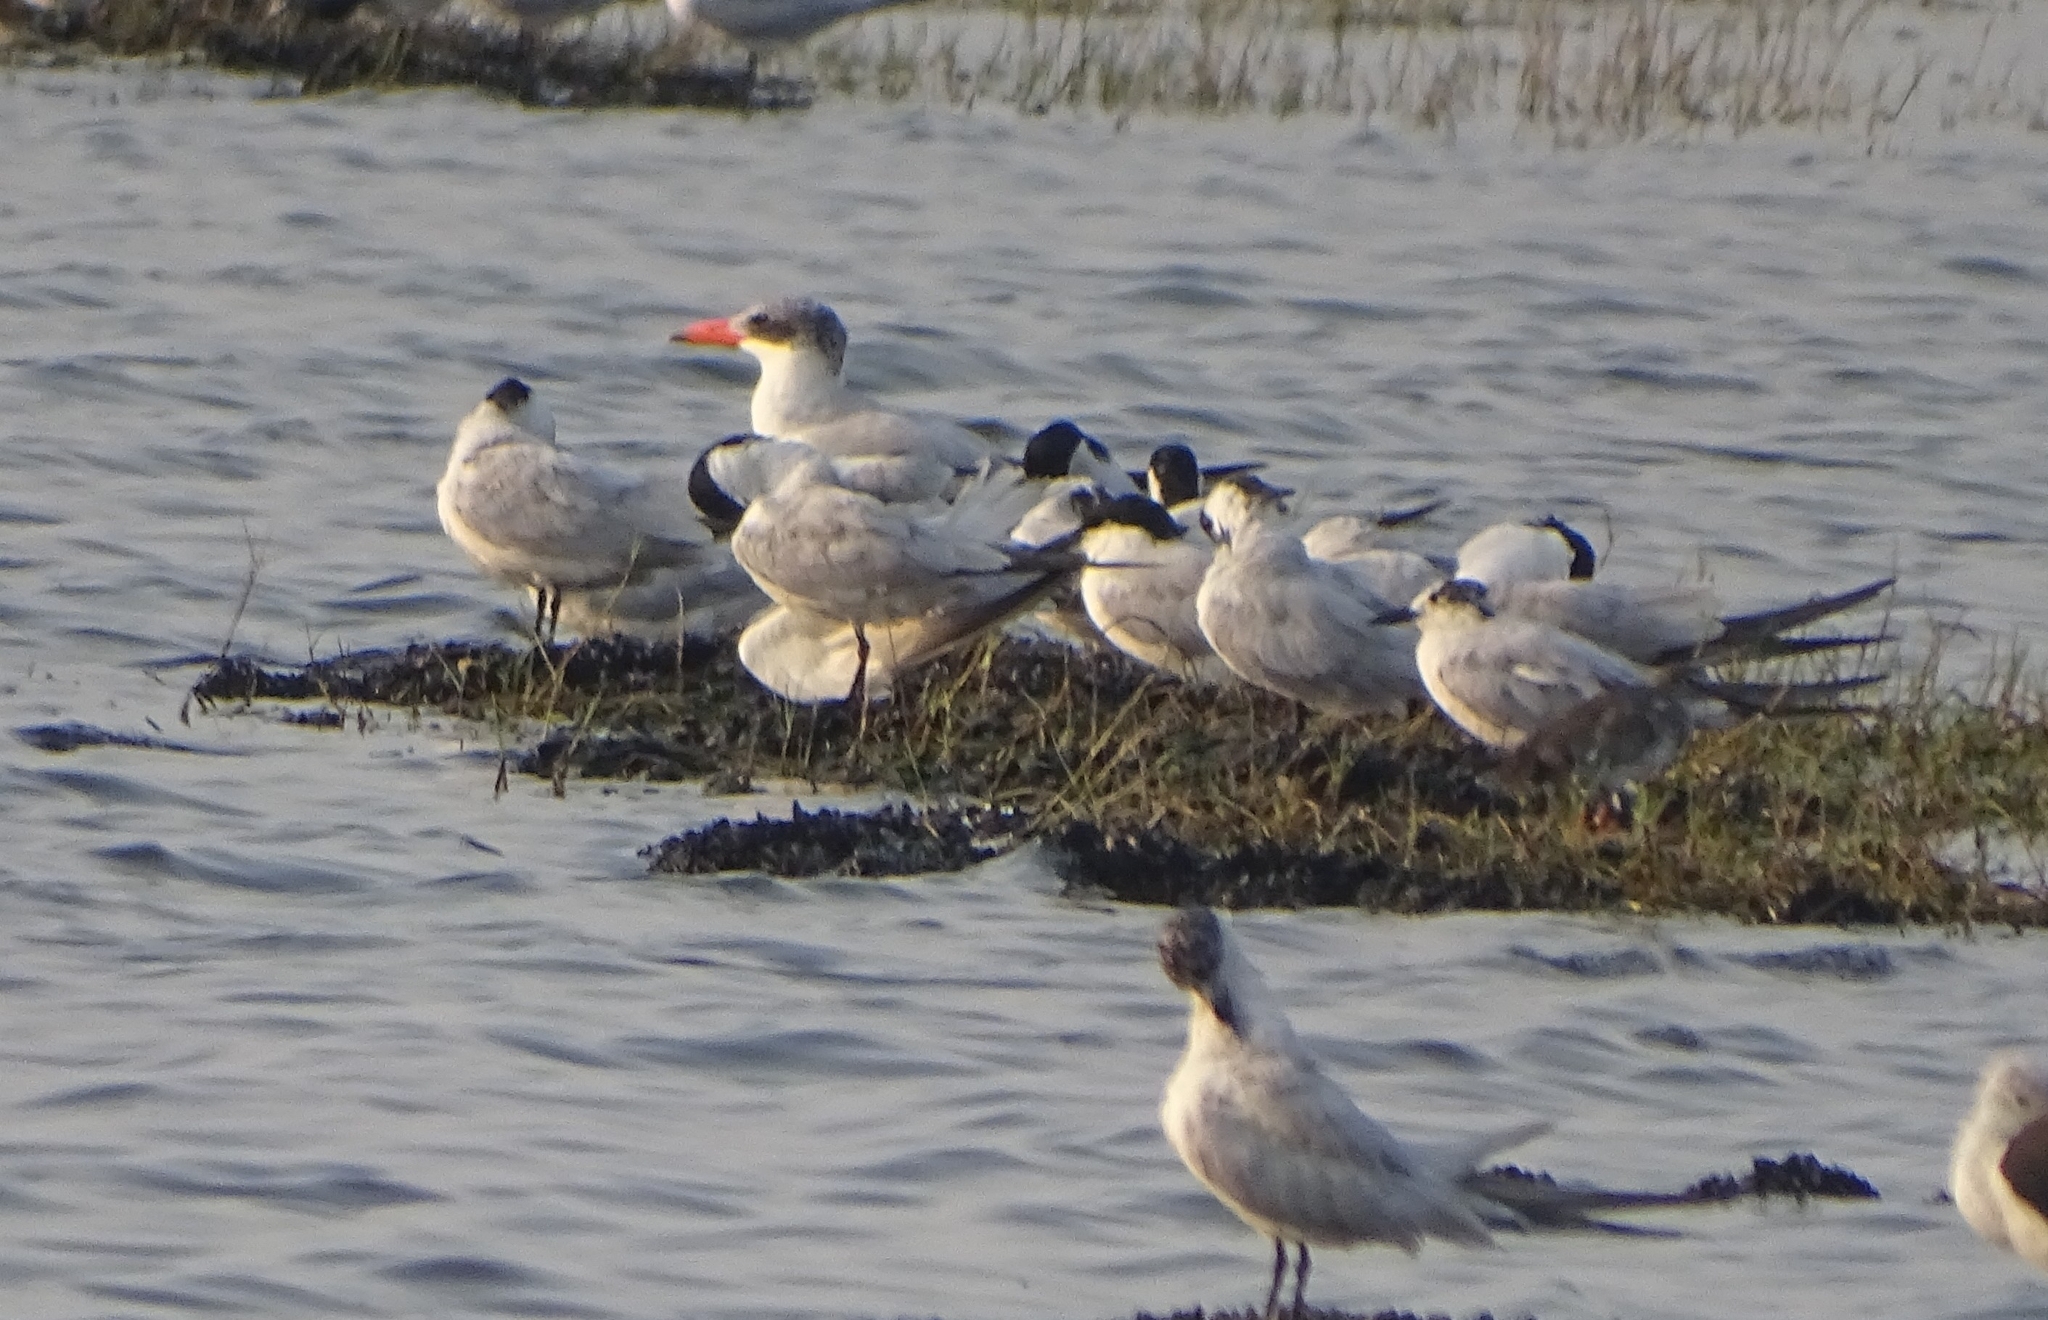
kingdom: Animalia
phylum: Chordata
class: Aves
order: Charadriiformes
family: Laridae
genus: Hydroprogne
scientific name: Hydroprogne caspia
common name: Caspian tern
